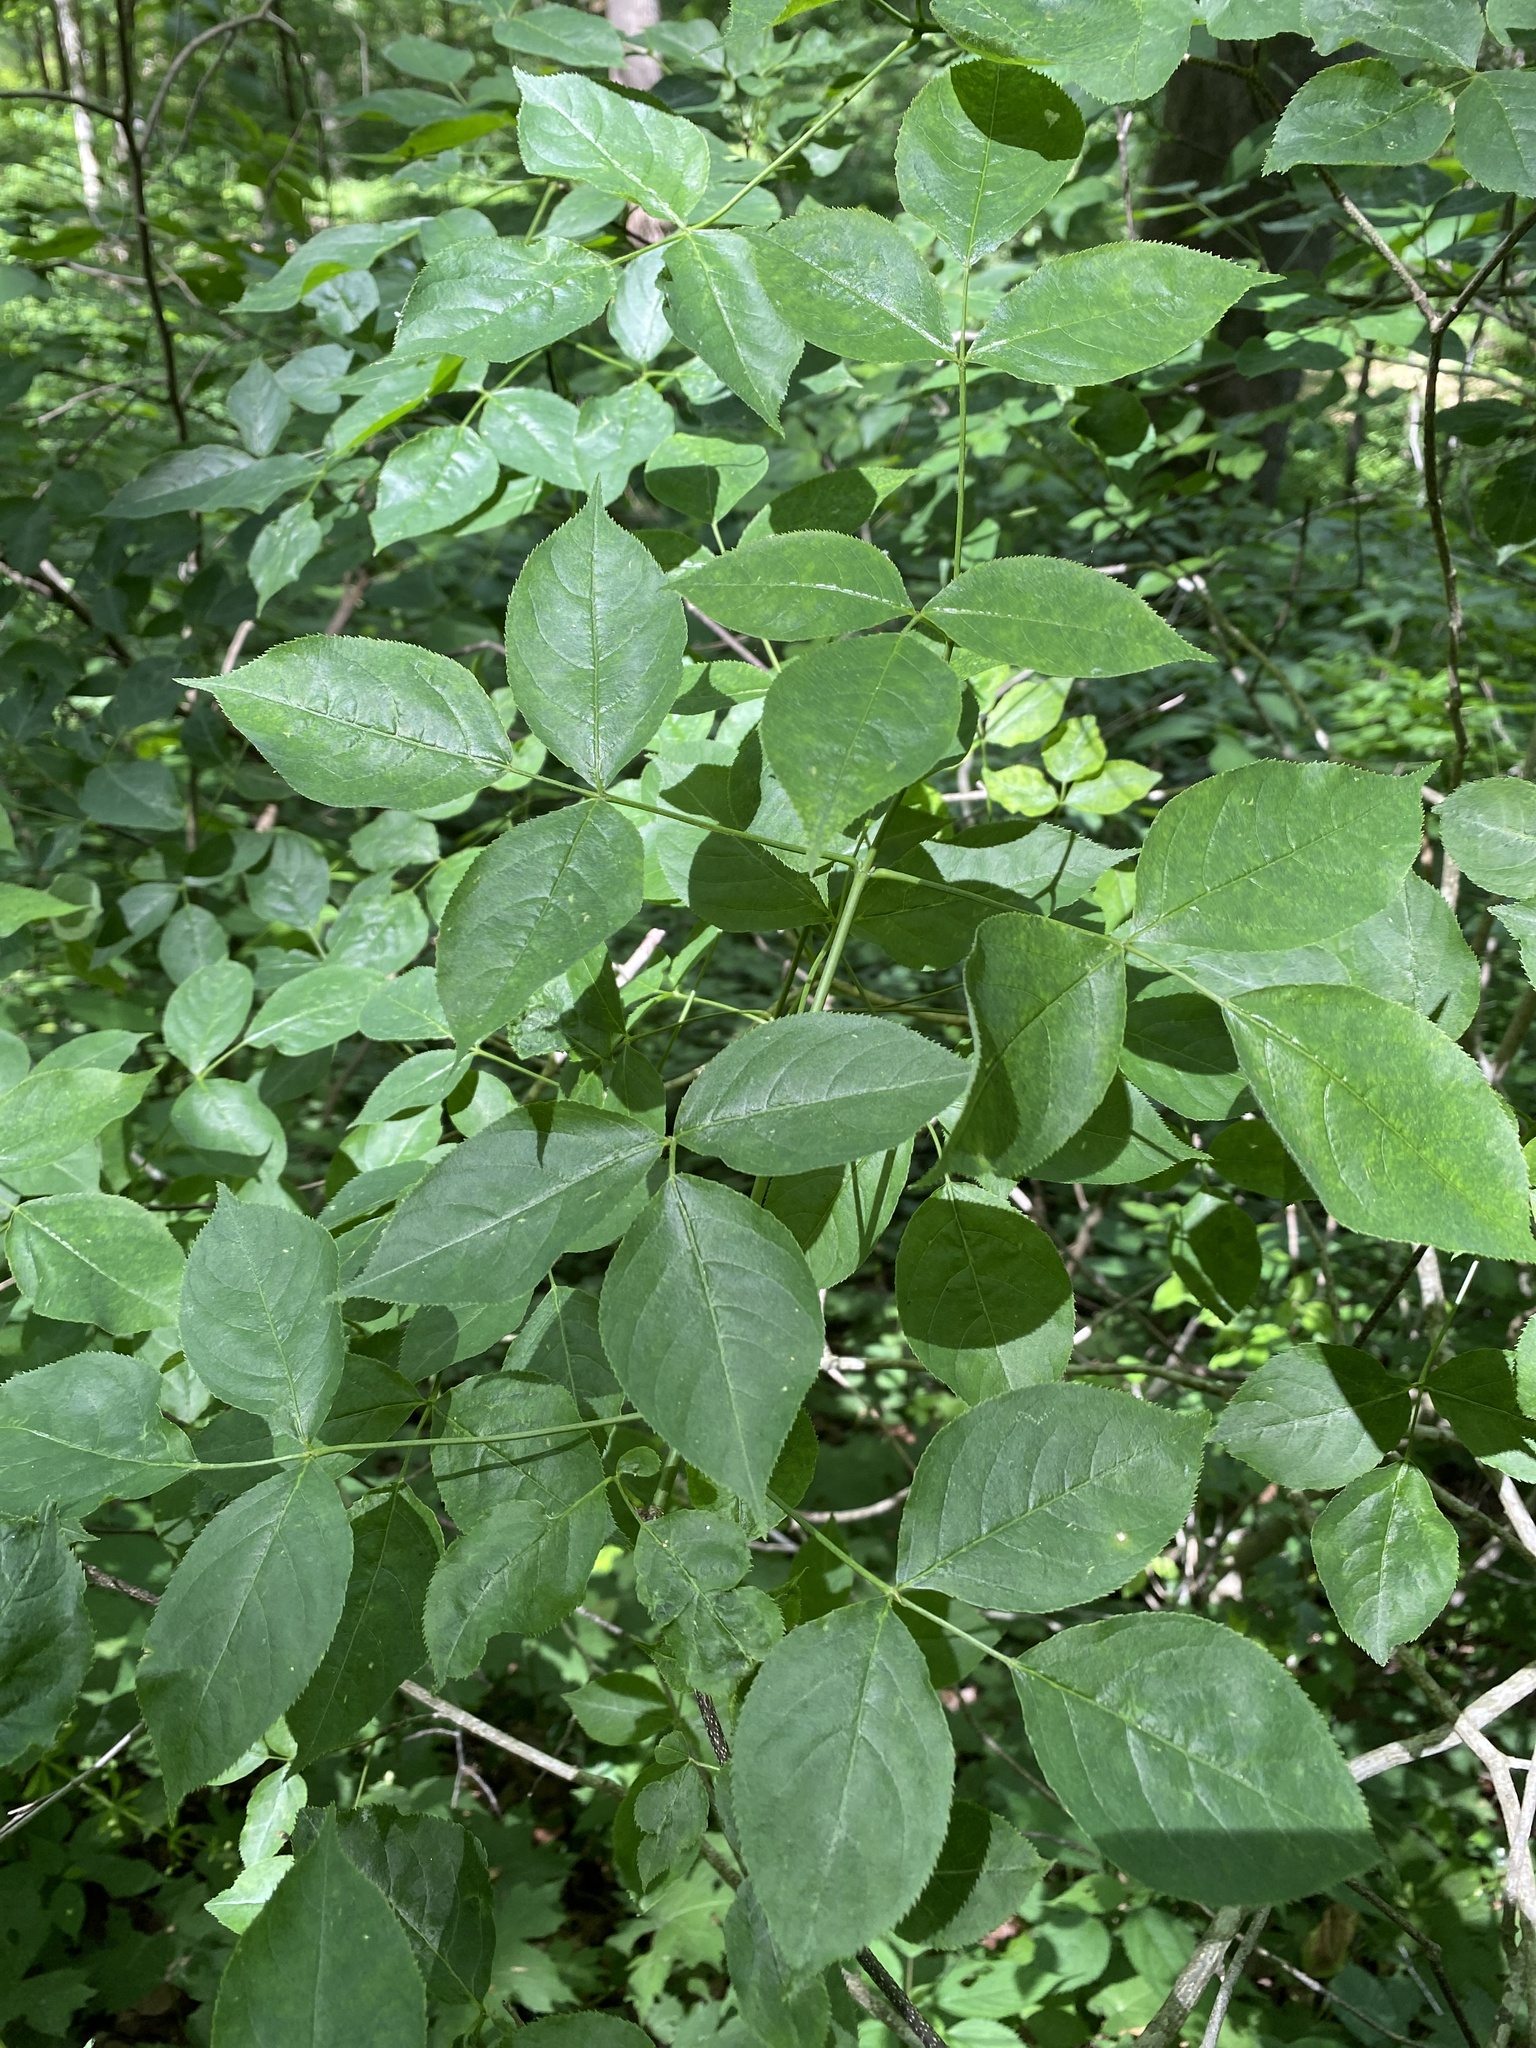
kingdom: Plantae
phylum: Tracheophyta
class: Magnoliopsida
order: Crossosomatales
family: Staphyleaceae
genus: Staphylea
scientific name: Staphylea trifolia
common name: American bladdernut
